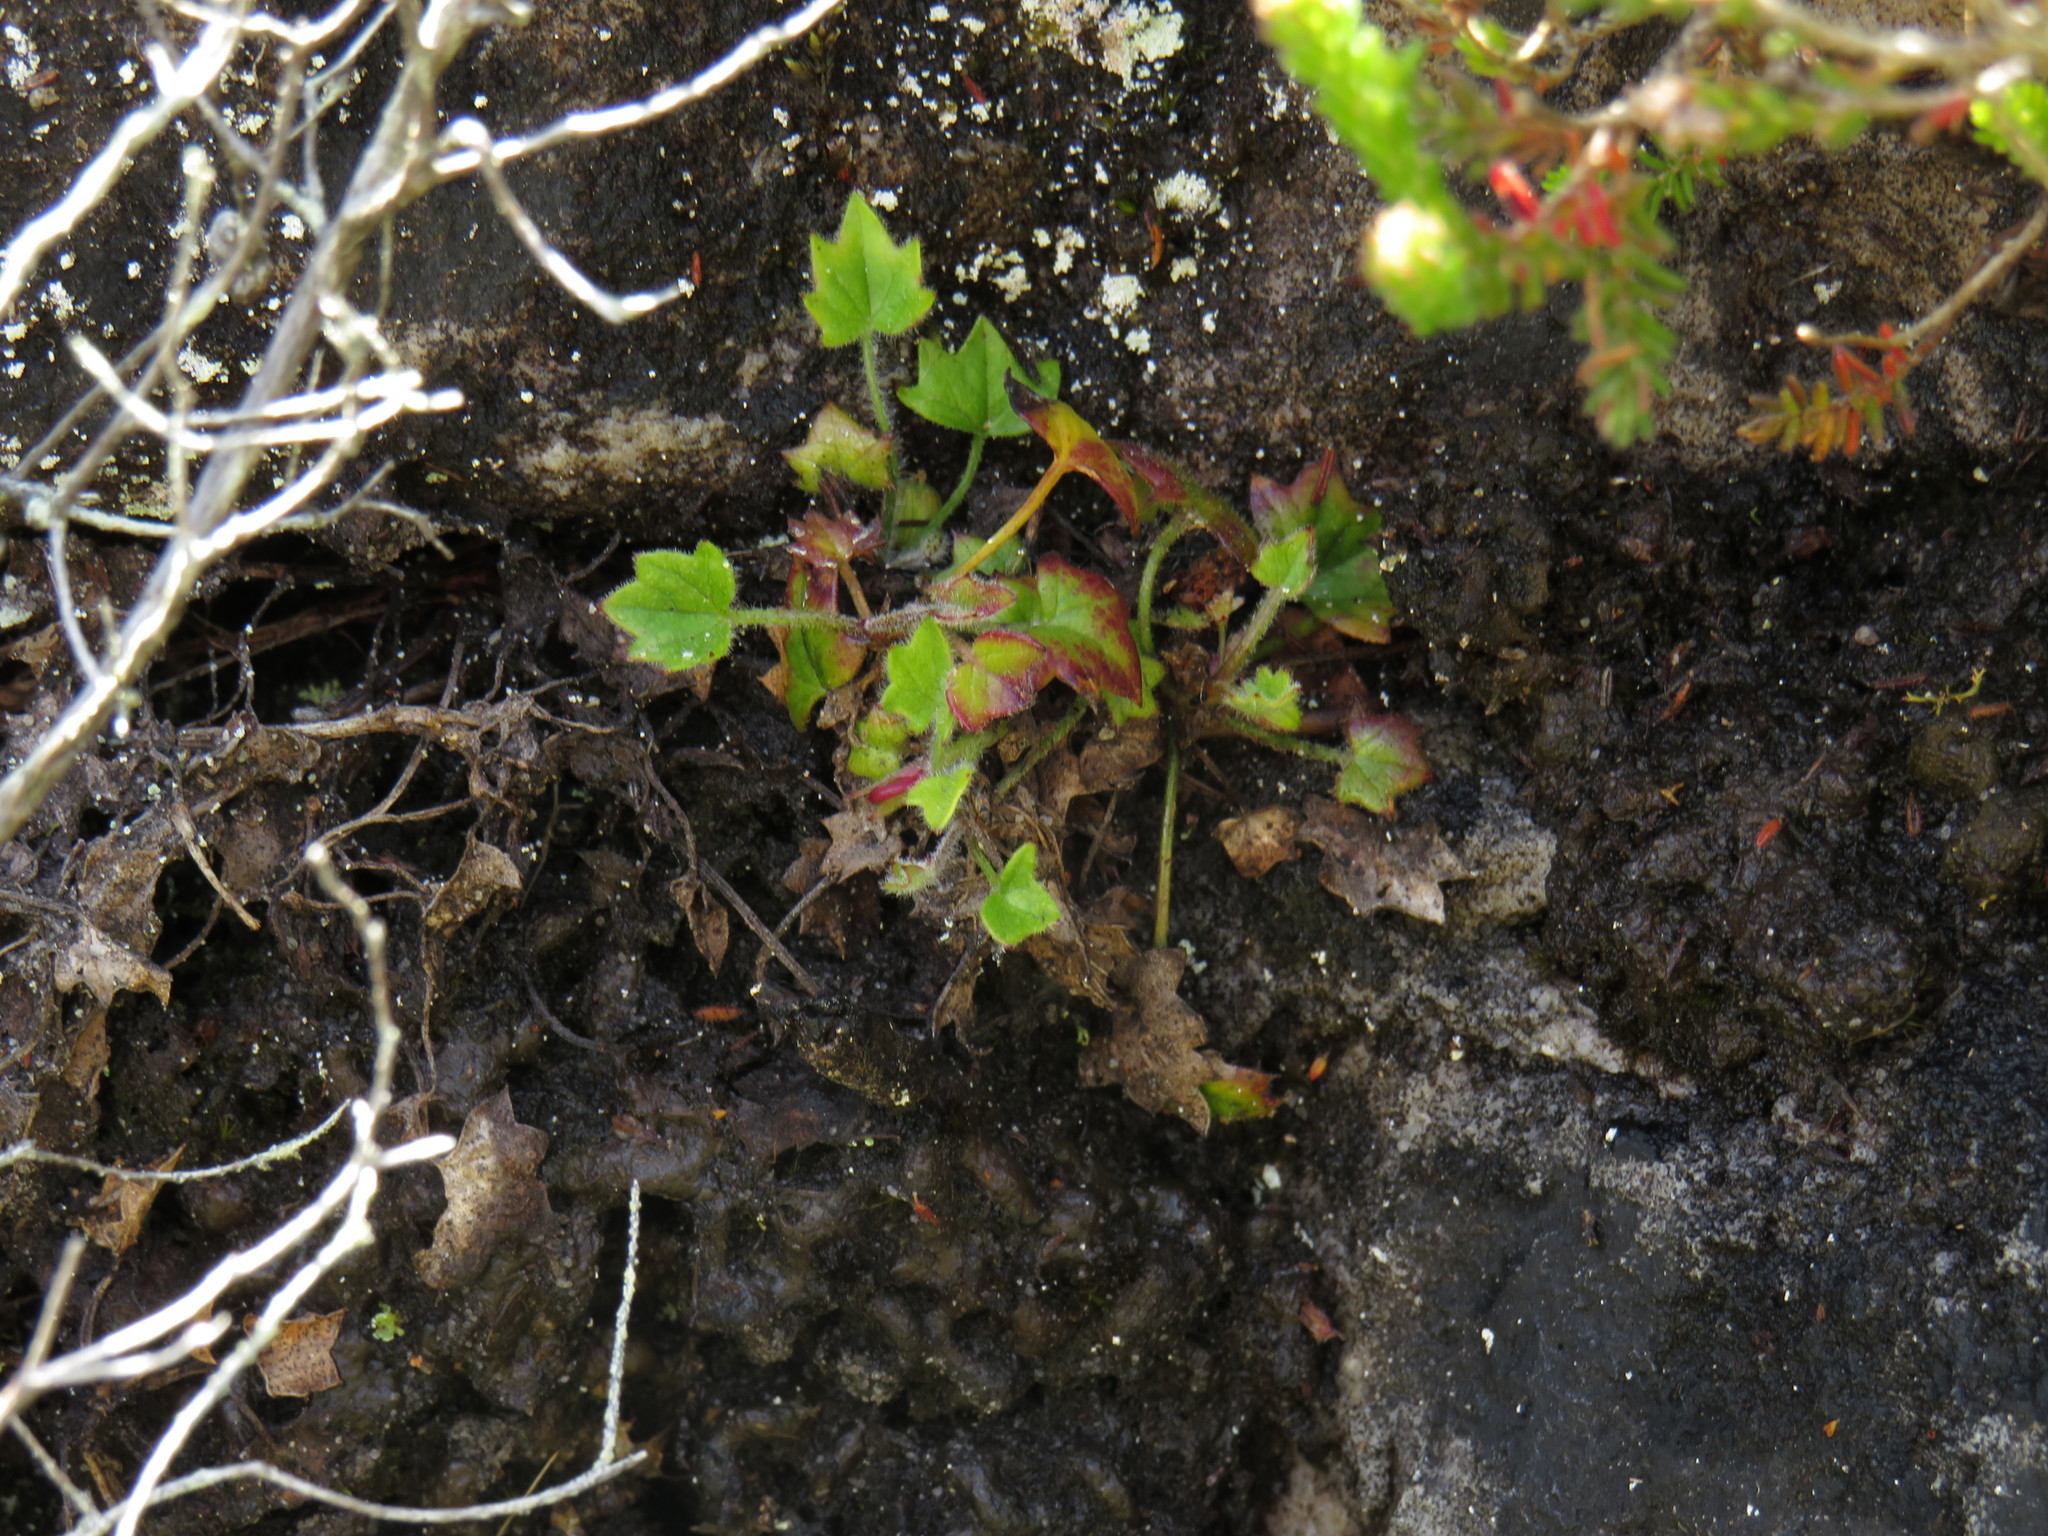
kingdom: Plantae
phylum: Tracheophyta
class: Magnoliopsida
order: Apiales
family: Apiaceae
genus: Centella
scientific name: Centella macroda
